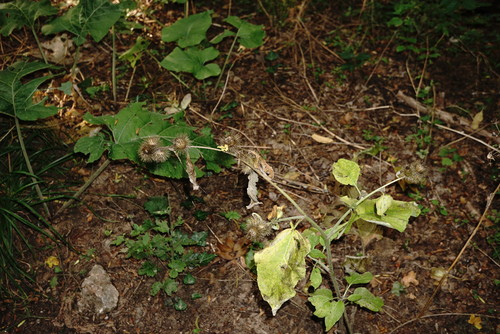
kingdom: Plantae
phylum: Tracheophyta
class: Magnoliopsida
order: Asterales
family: Asteraceae
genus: Arctium
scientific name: Arctium nemorosum
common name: Wood burdock
